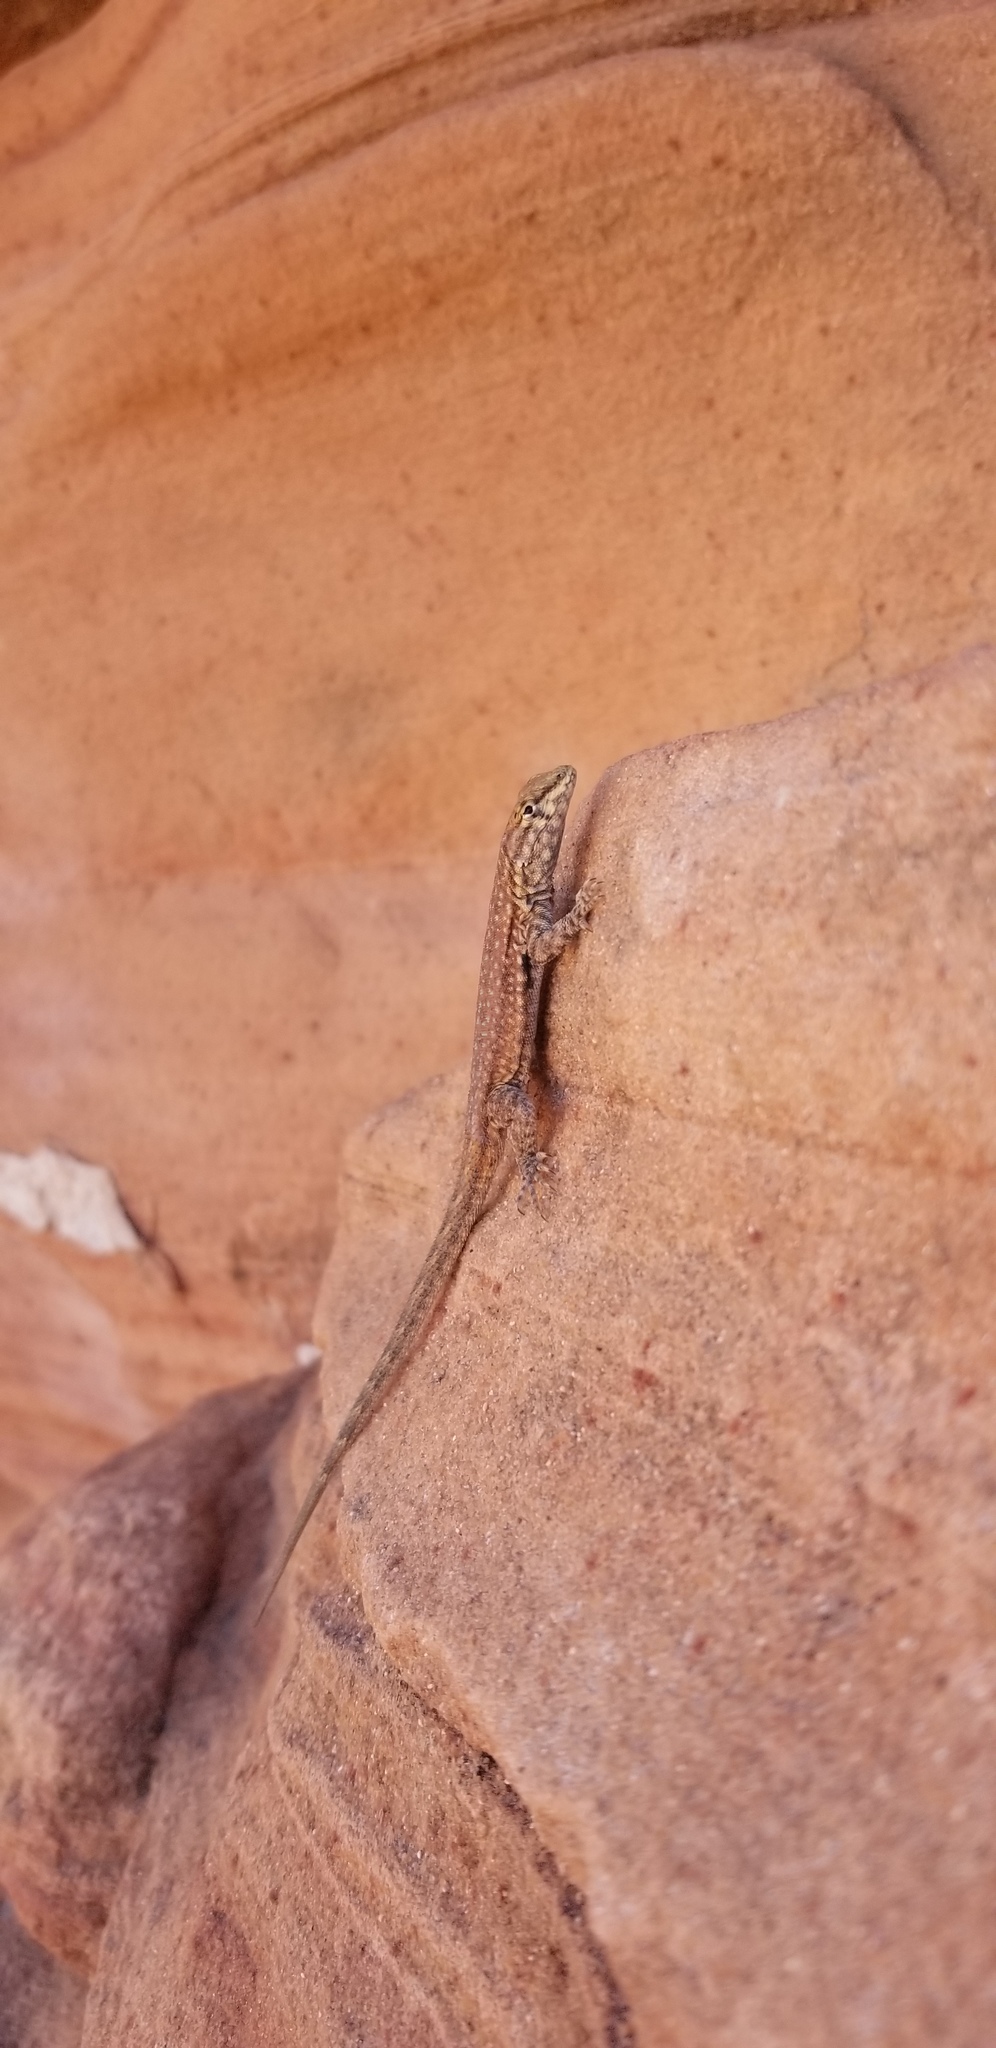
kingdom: Animalia
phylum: Chordata
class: Squamata
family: Phrynosomatidae
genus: Uta
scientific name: Uta stansburiana
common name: Side-blotched lizard
